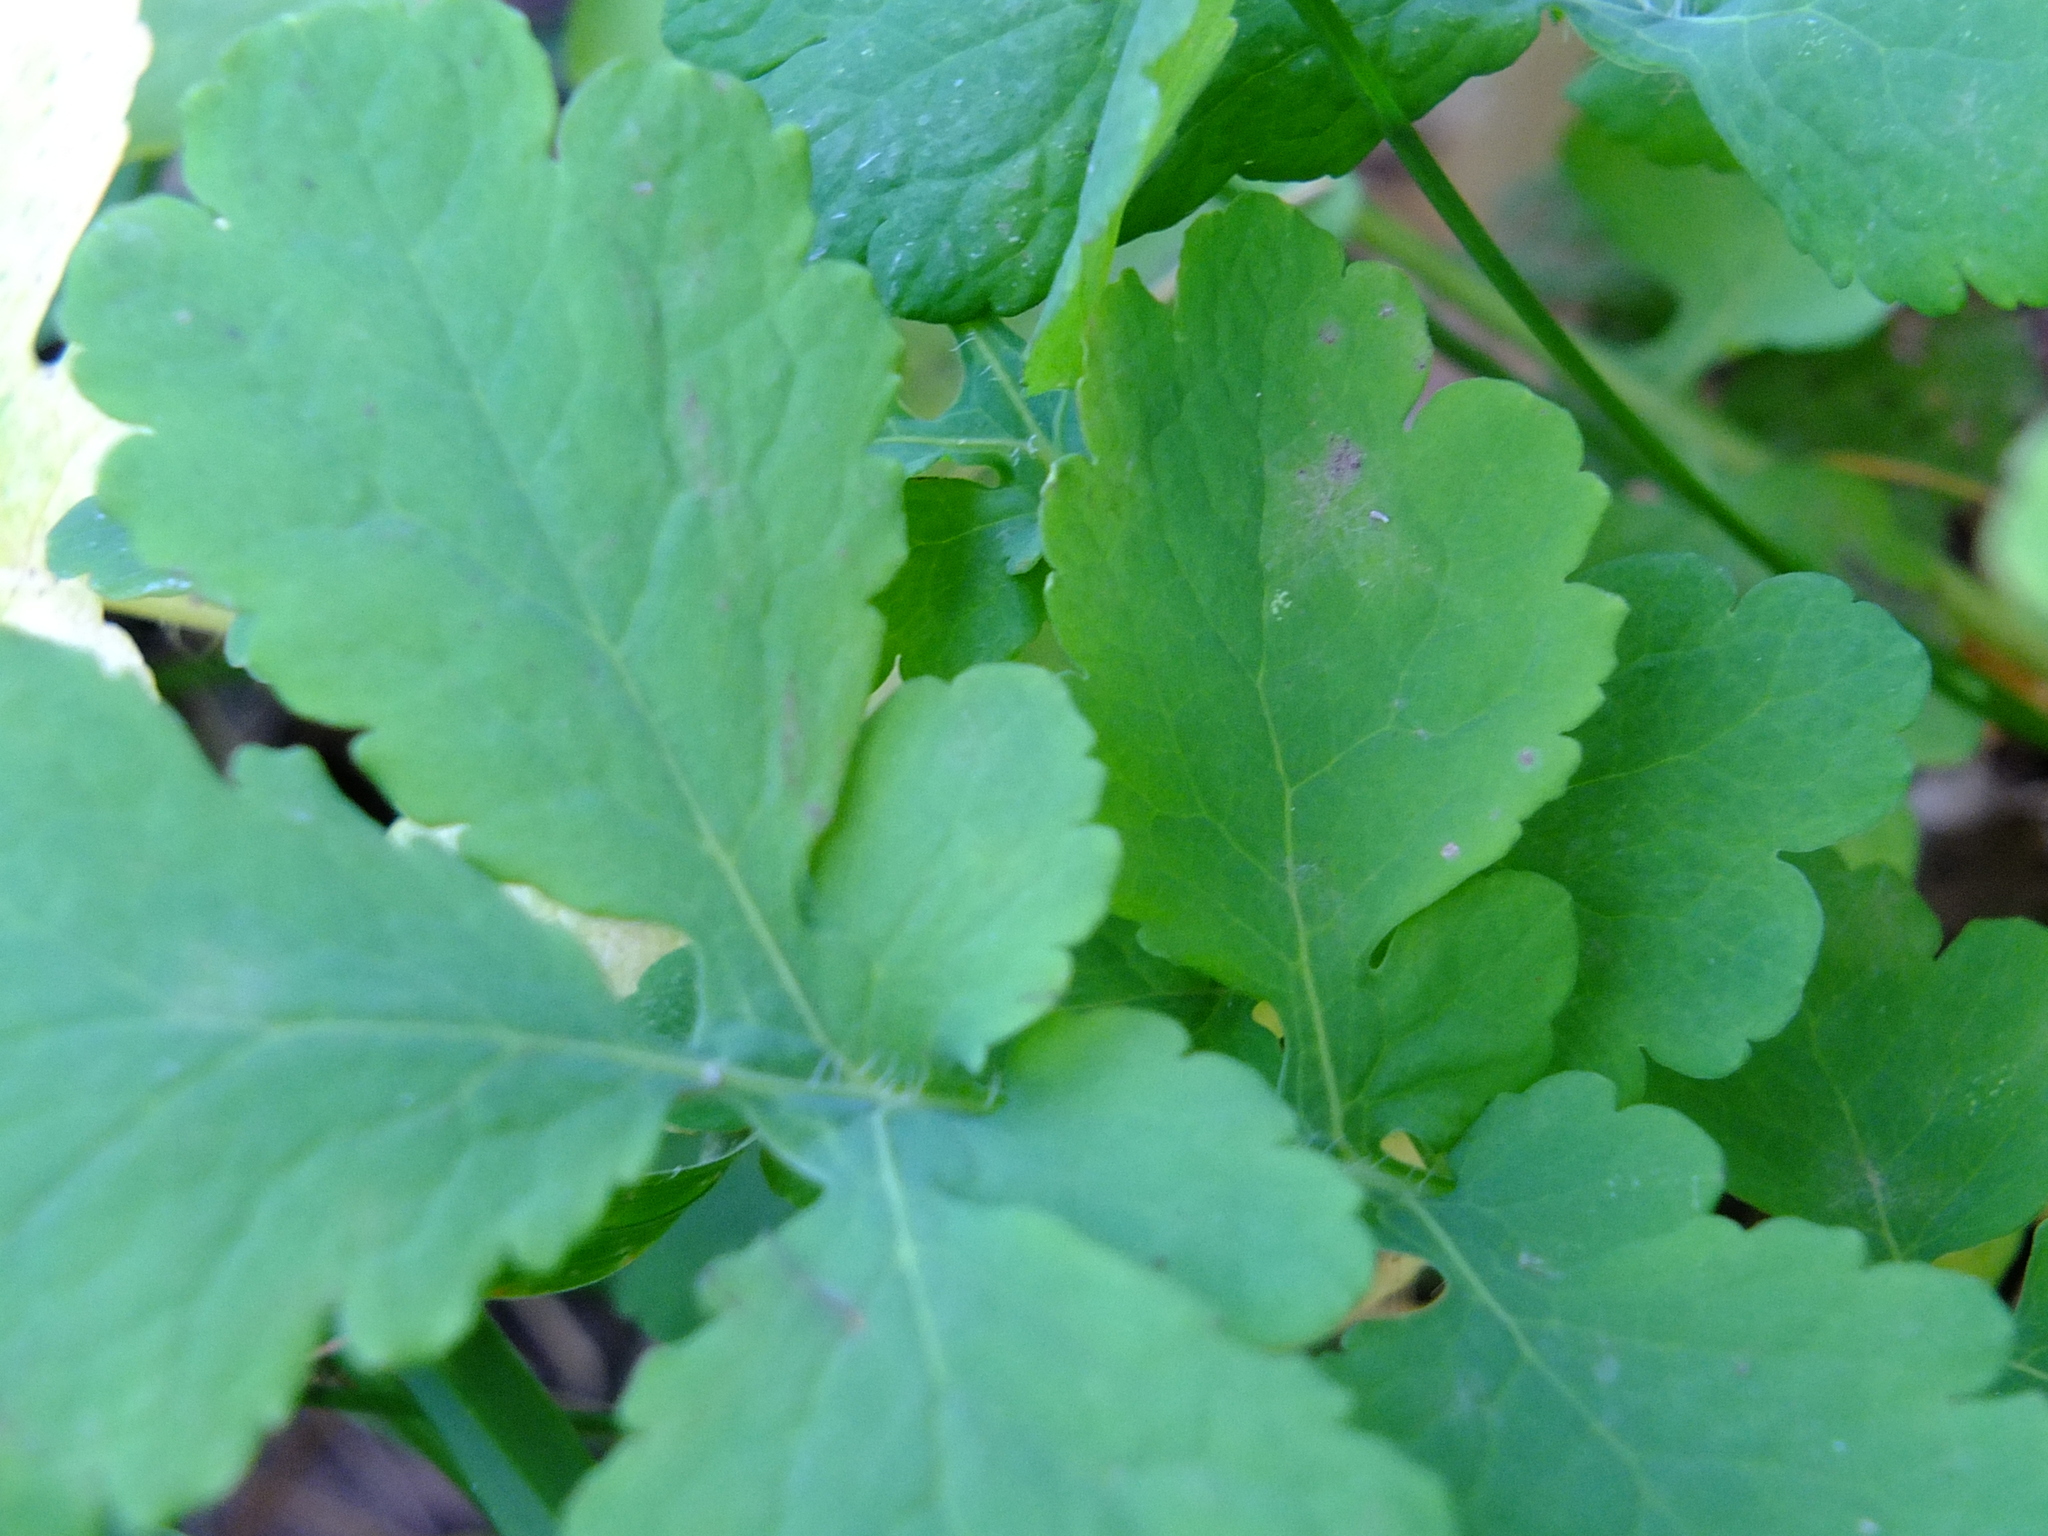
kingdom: Plantae
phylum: Tracheophyta
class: Magnoliopsida
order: Ranunculales
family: Papaveraceae
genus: Chelidonium
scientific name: Chelidonium majus
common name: Greater celandine
